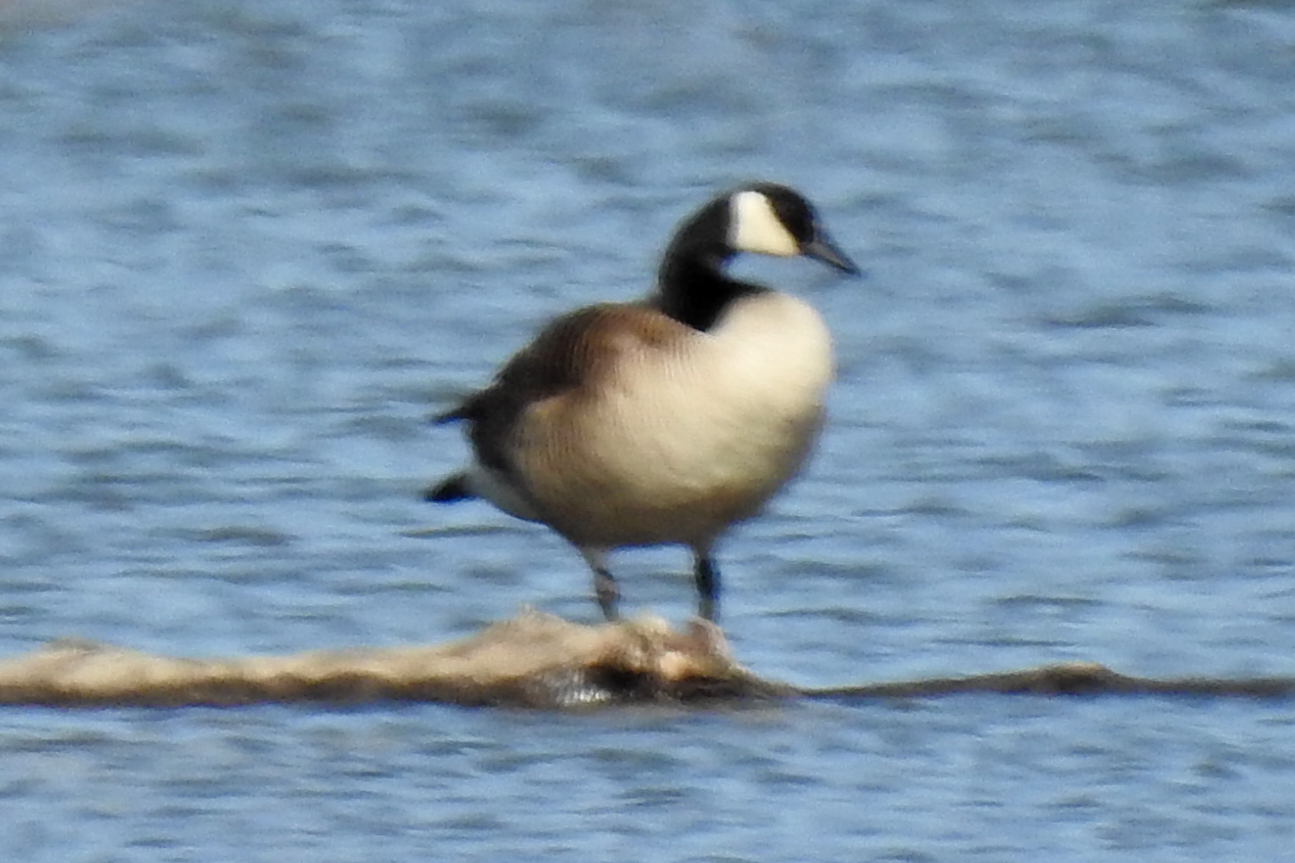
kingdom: Animalia
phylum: Chordata
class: Aves
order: Anseriformes
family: Anatidae
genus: Branta
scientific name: Branta canadensis
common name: Canada goose
